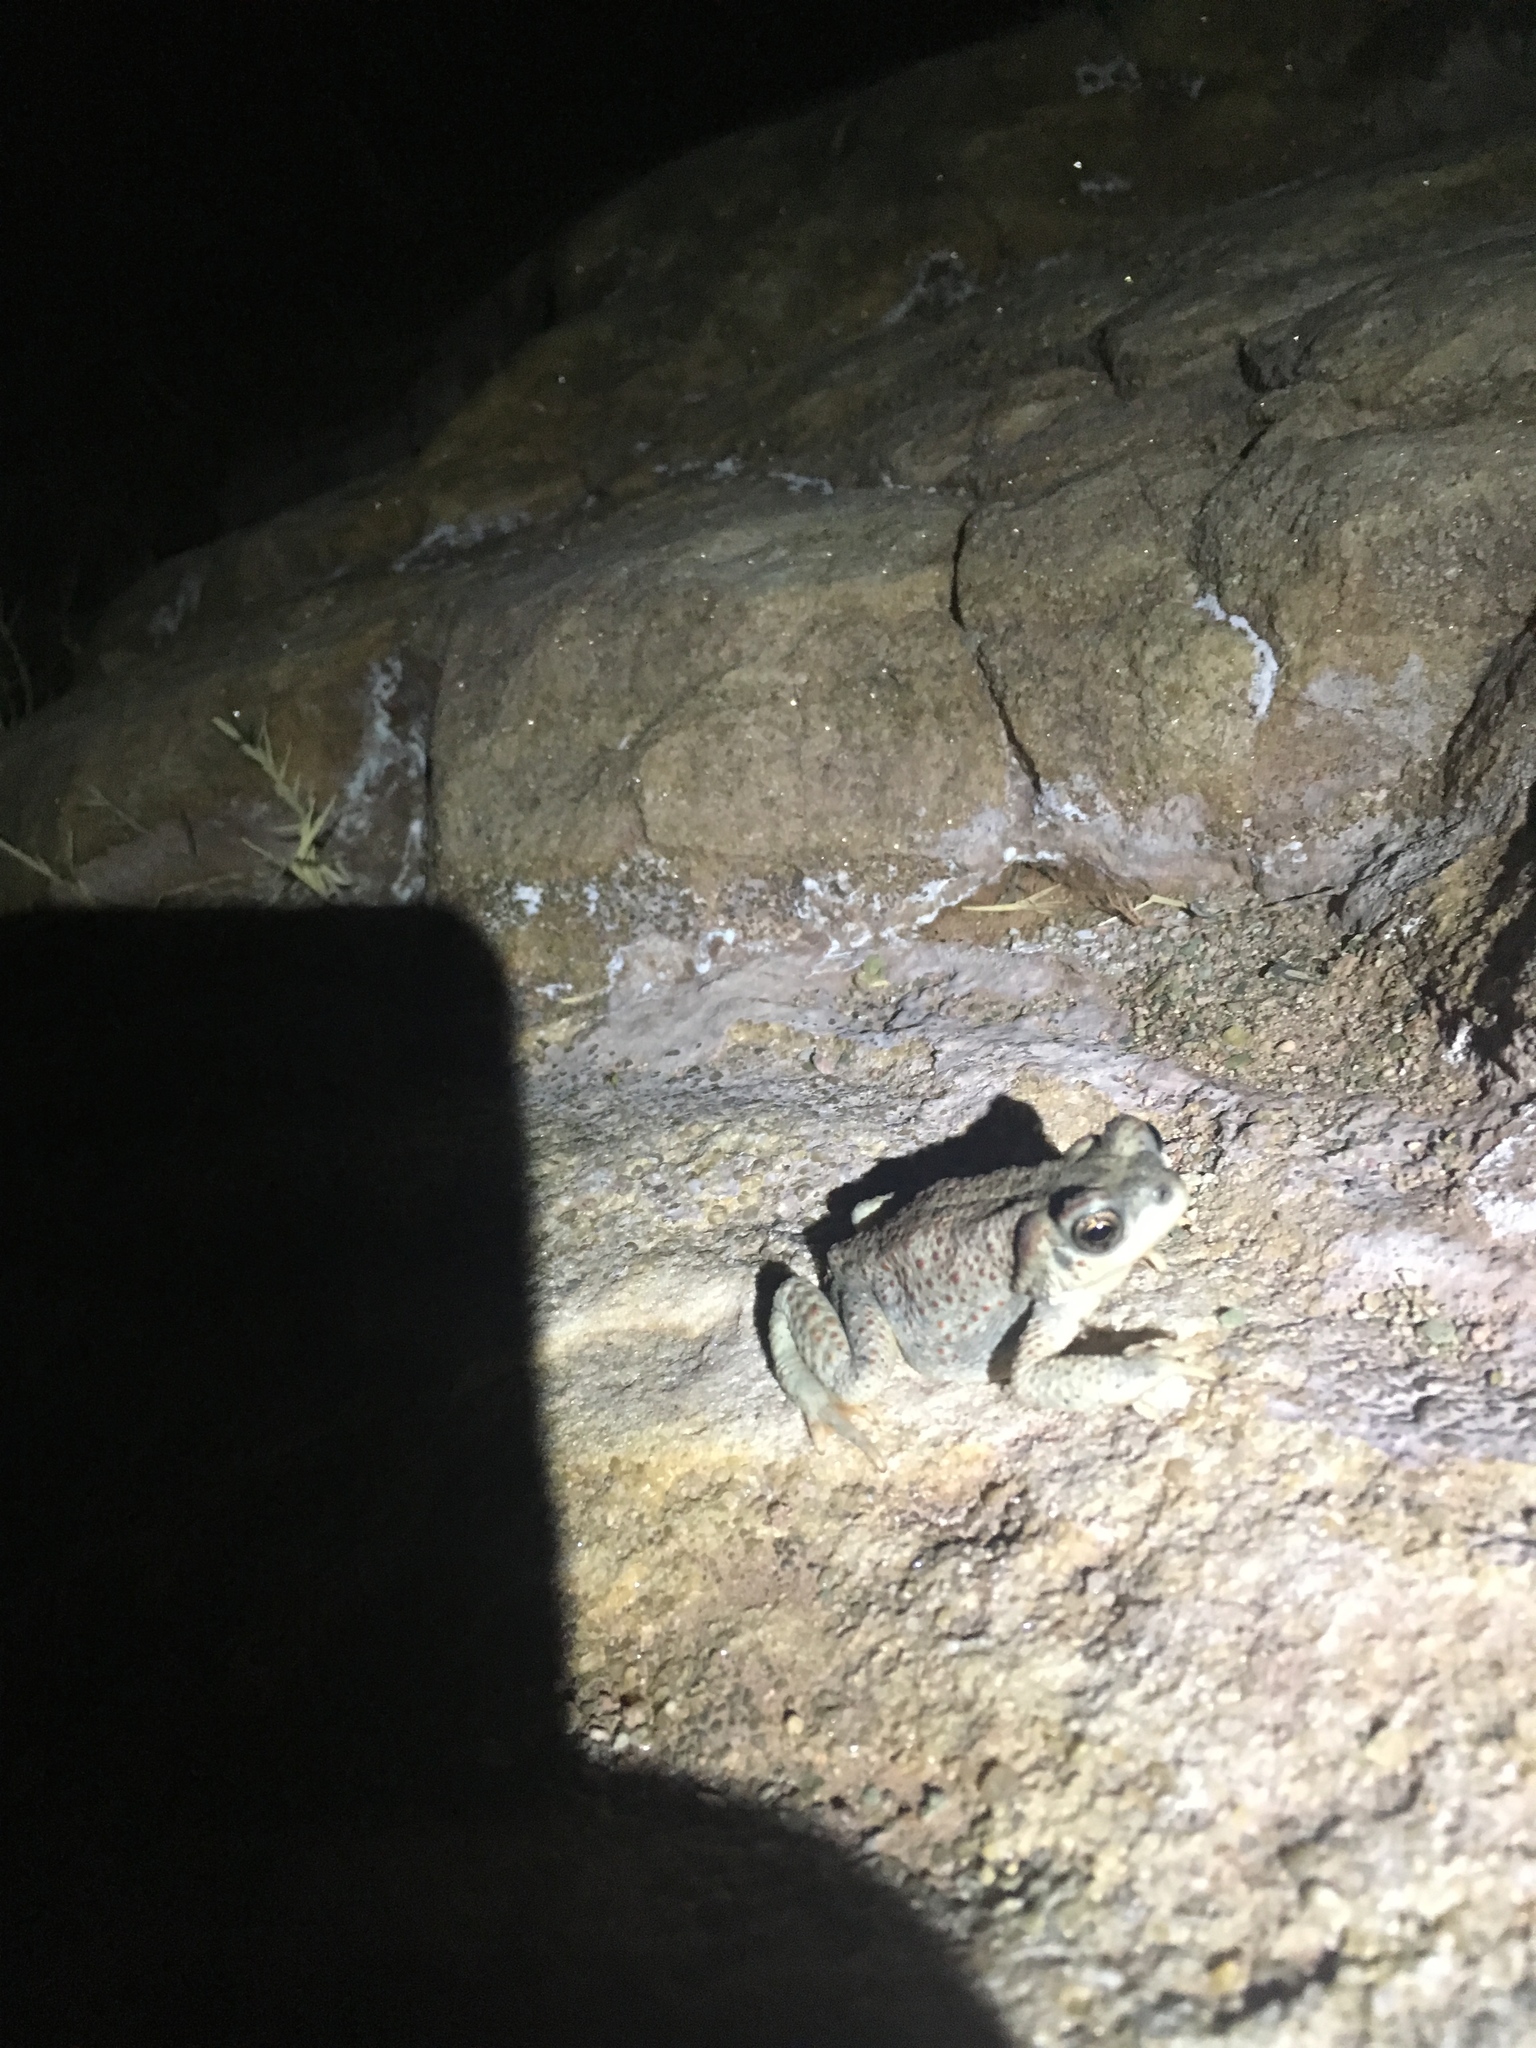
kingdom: Animalia
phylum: Chordata
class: Amphibia
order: Anura
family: Bufonidae
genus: Anaxyrus
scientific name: Anaxyrus punctatus
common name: Red-spotted toad
